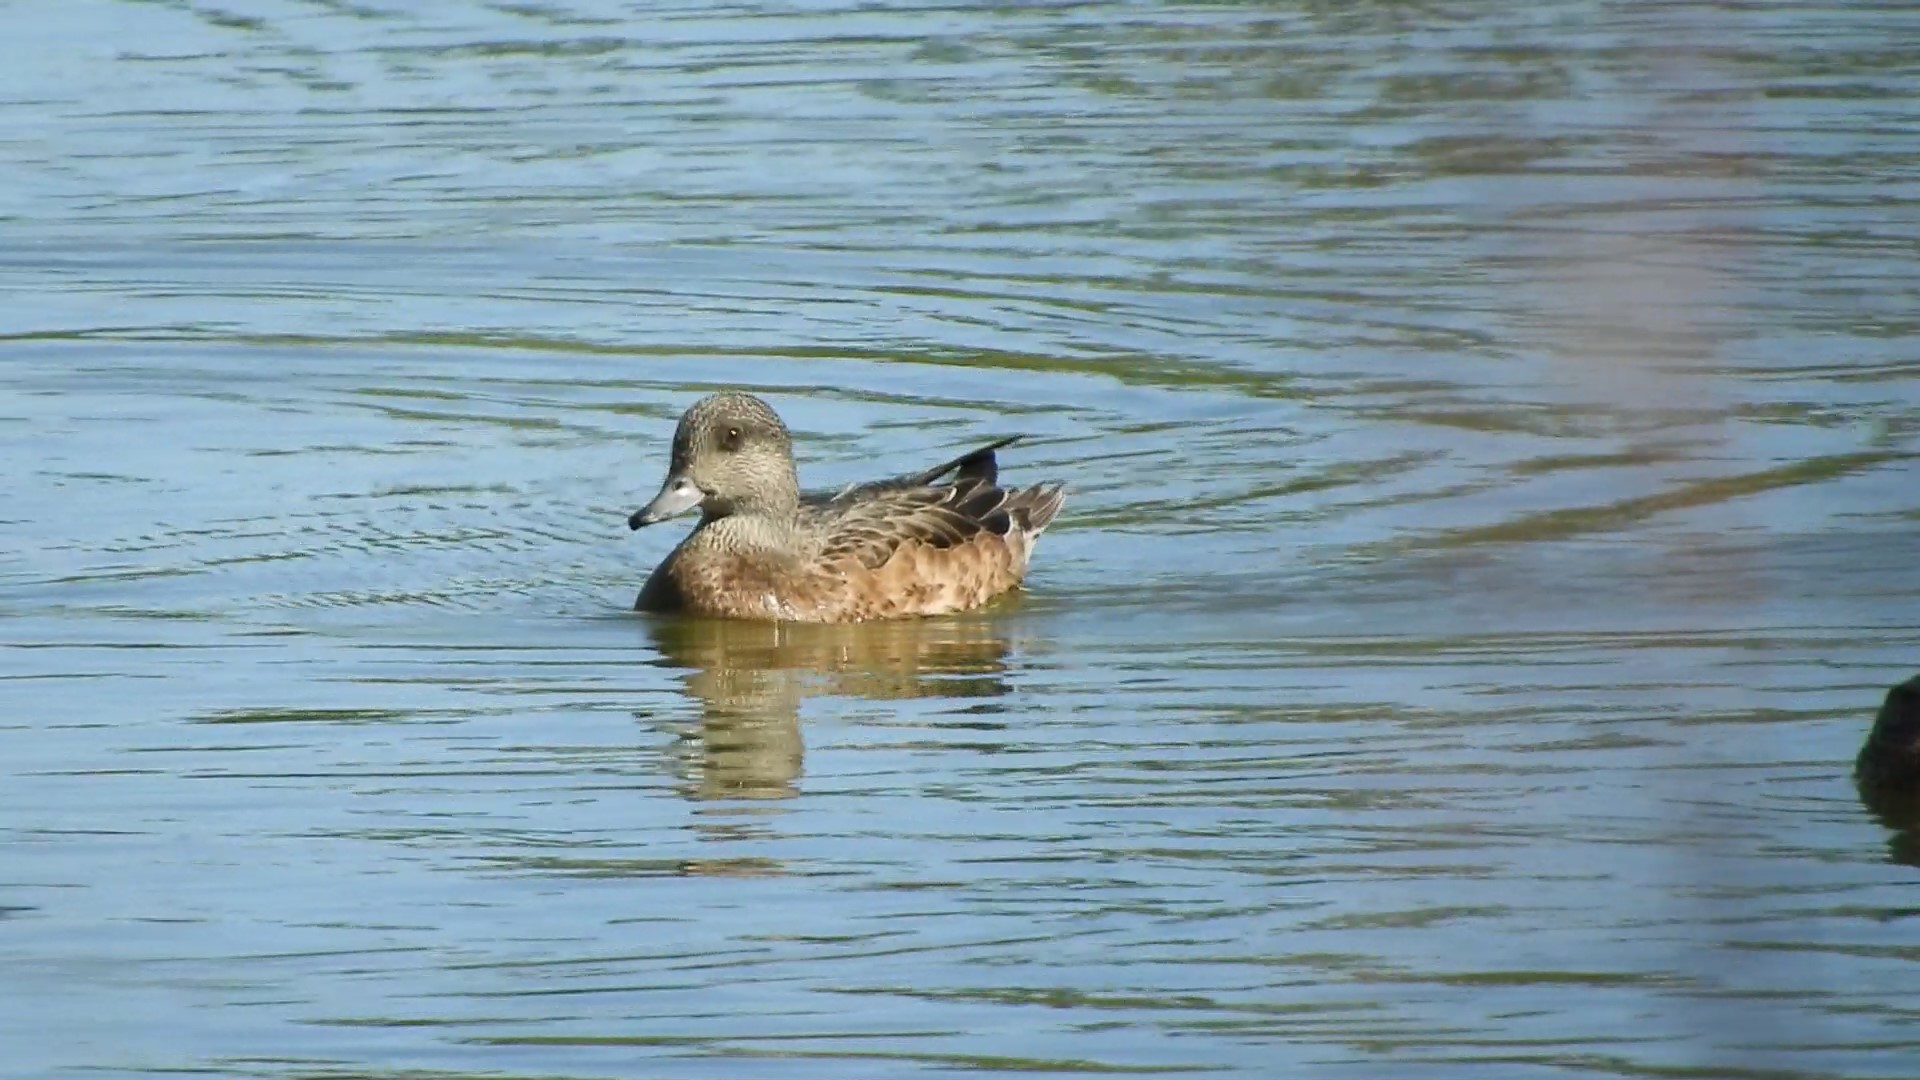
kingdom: Animalia
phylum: Chordata
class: Aves
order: Anseriformes
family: Anatidae
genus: Mareca
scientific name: Mareca americana
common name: American wigeon
